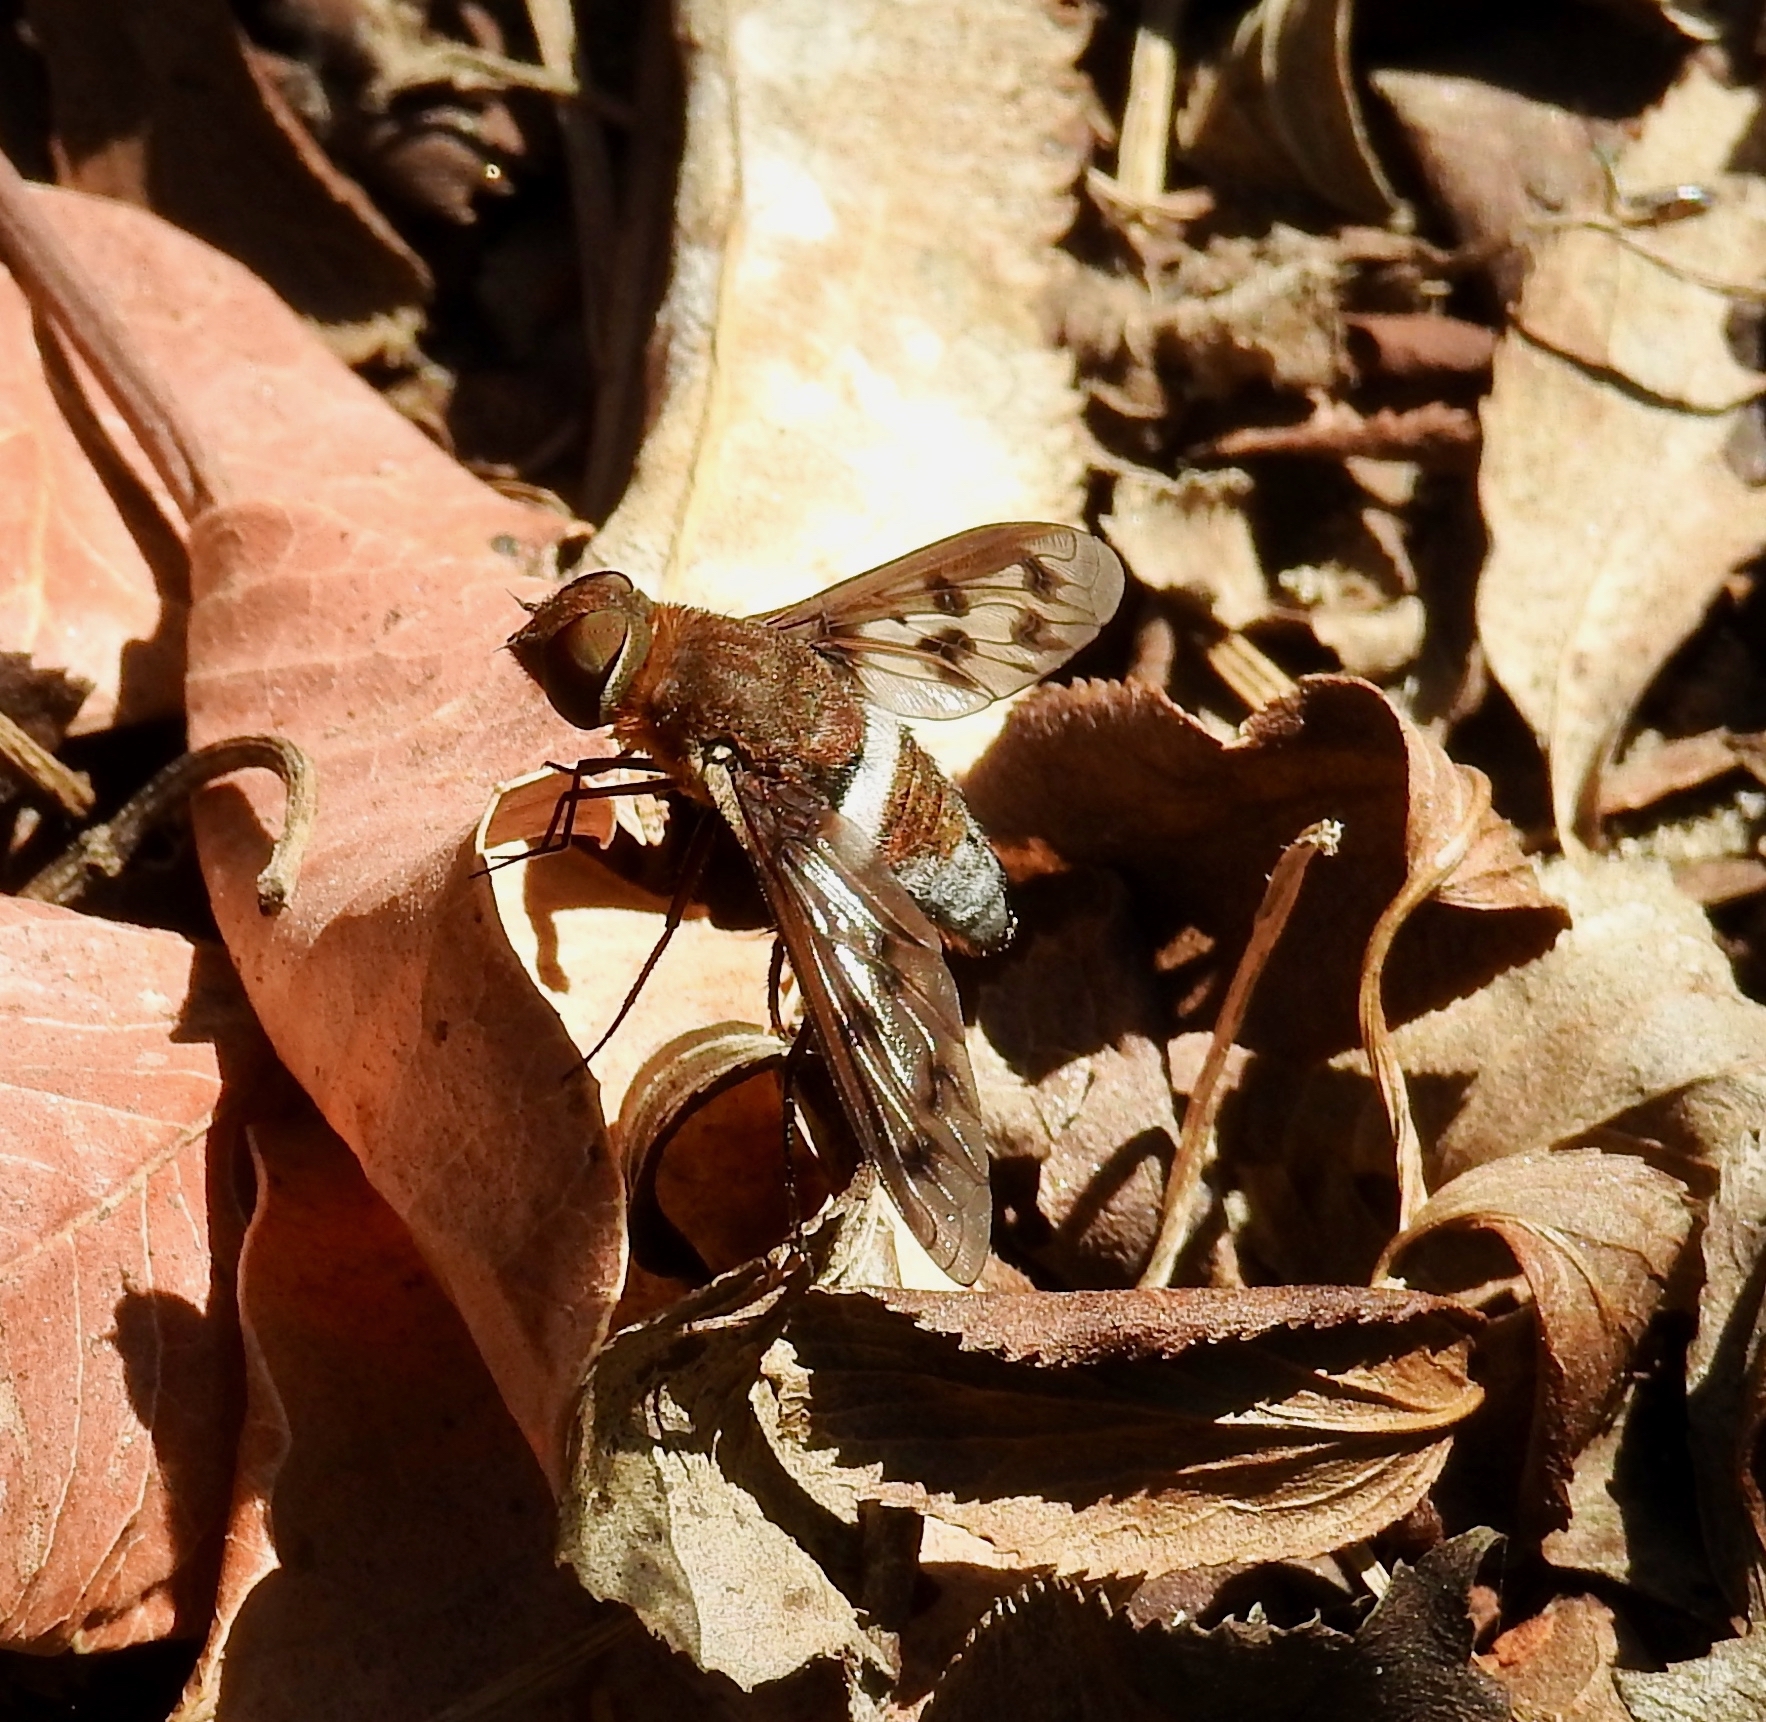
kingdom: Animalia
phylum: Arthropoda
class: Insecta
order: Diptera
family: Bombyliidae
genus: Nyia
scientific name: Nyia gazophylax
